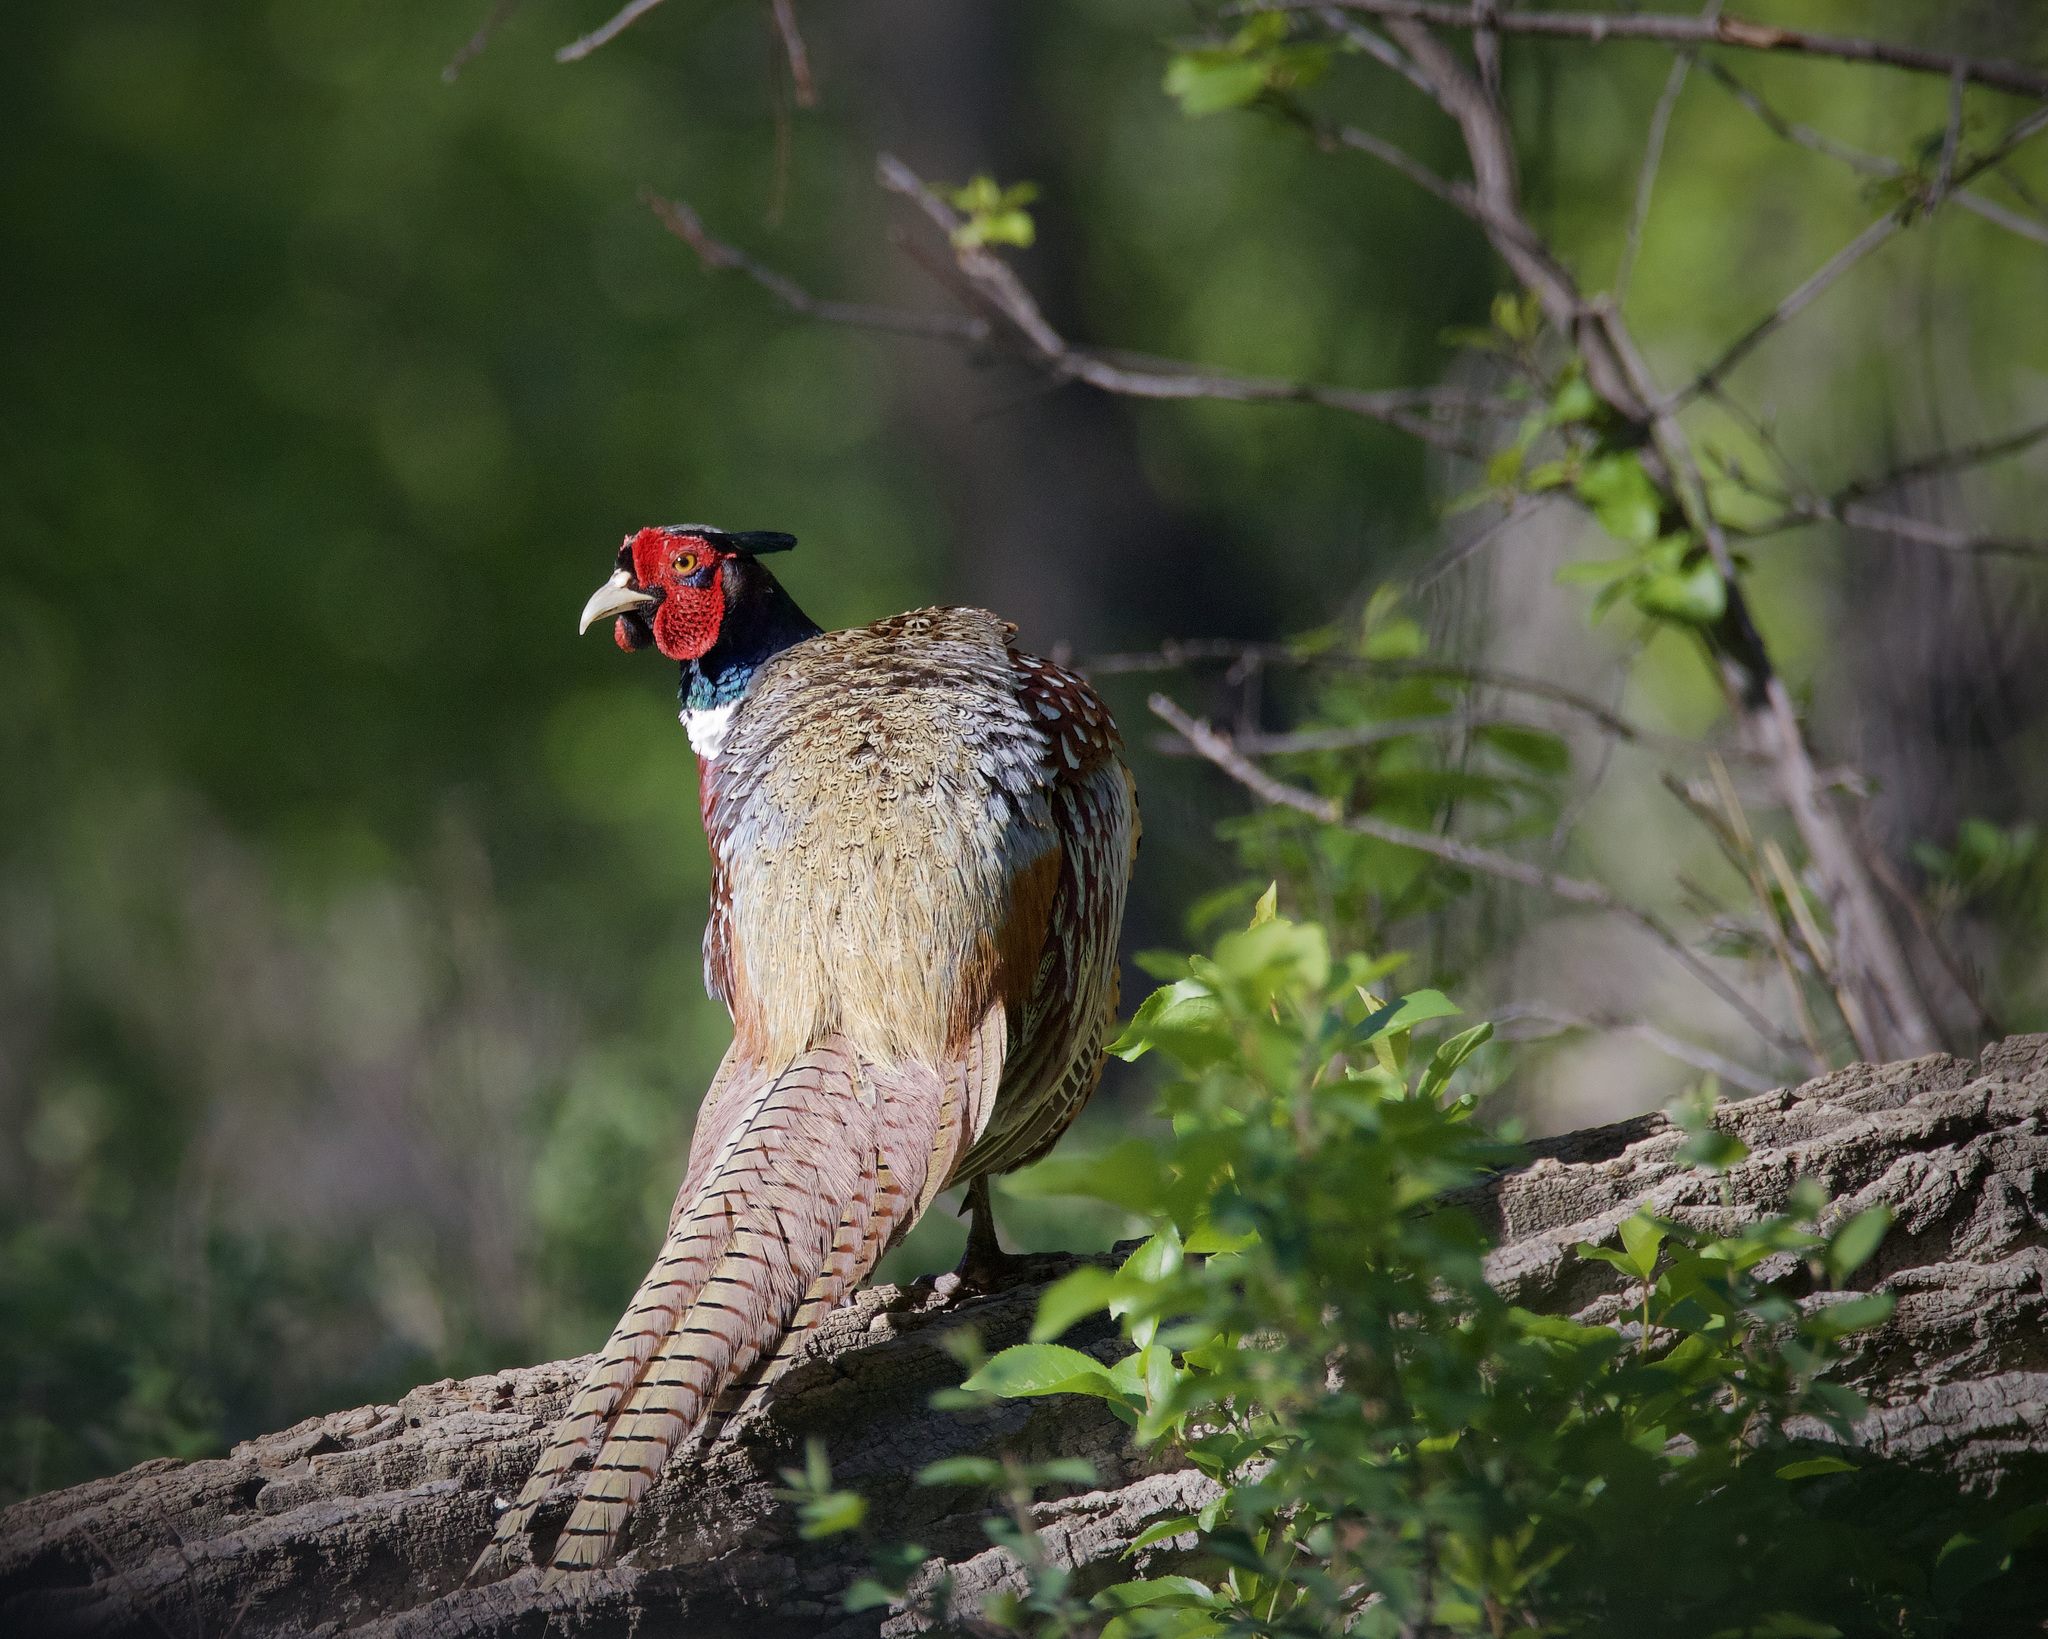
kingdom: Animalia
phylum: Chordata
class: Aves
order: Galliformes
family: Phasianidae
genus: Phasianus
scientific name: Phasianus colchicus
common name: Common pheasant
